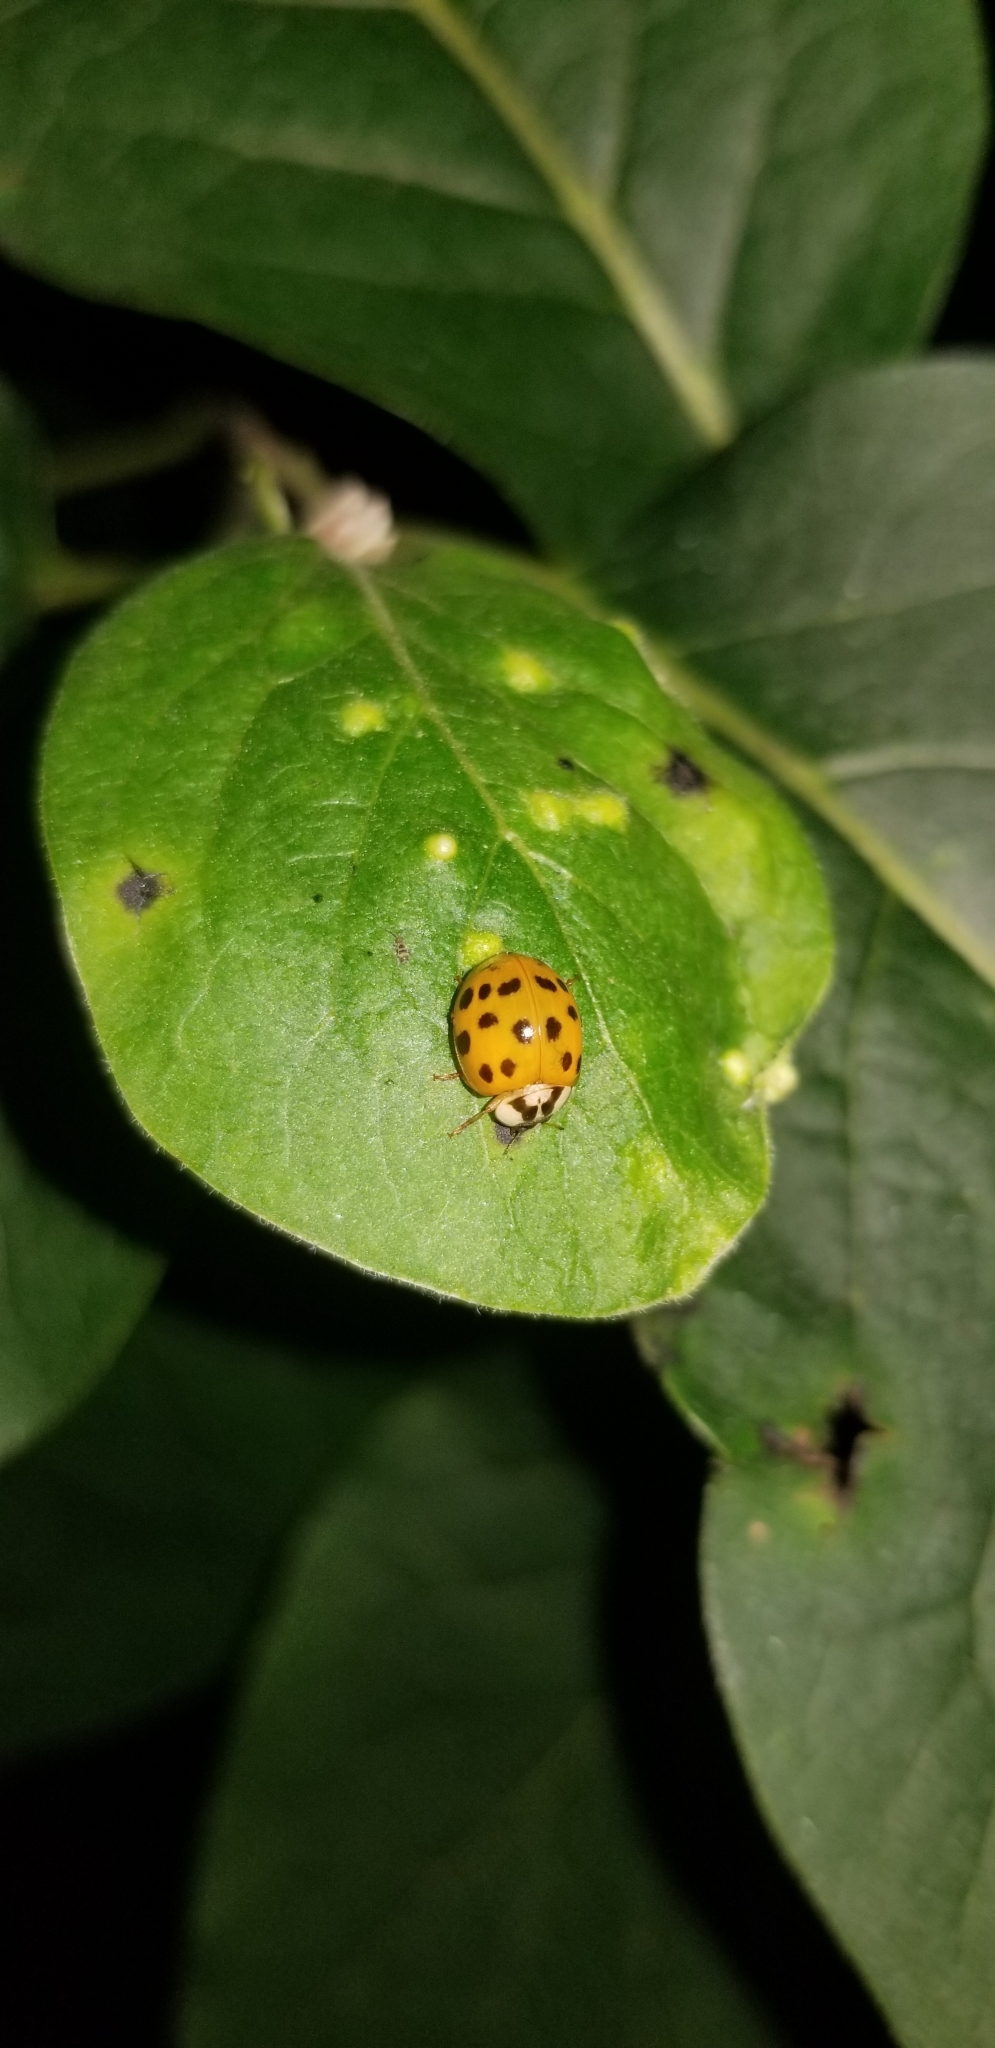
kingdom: Animalia
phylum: Arthropoda
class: Insecta
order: Coleoptera
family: Coccinellidae
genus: Harmonia
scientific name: Harmonia axyridis
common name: Harlequin ladybird
